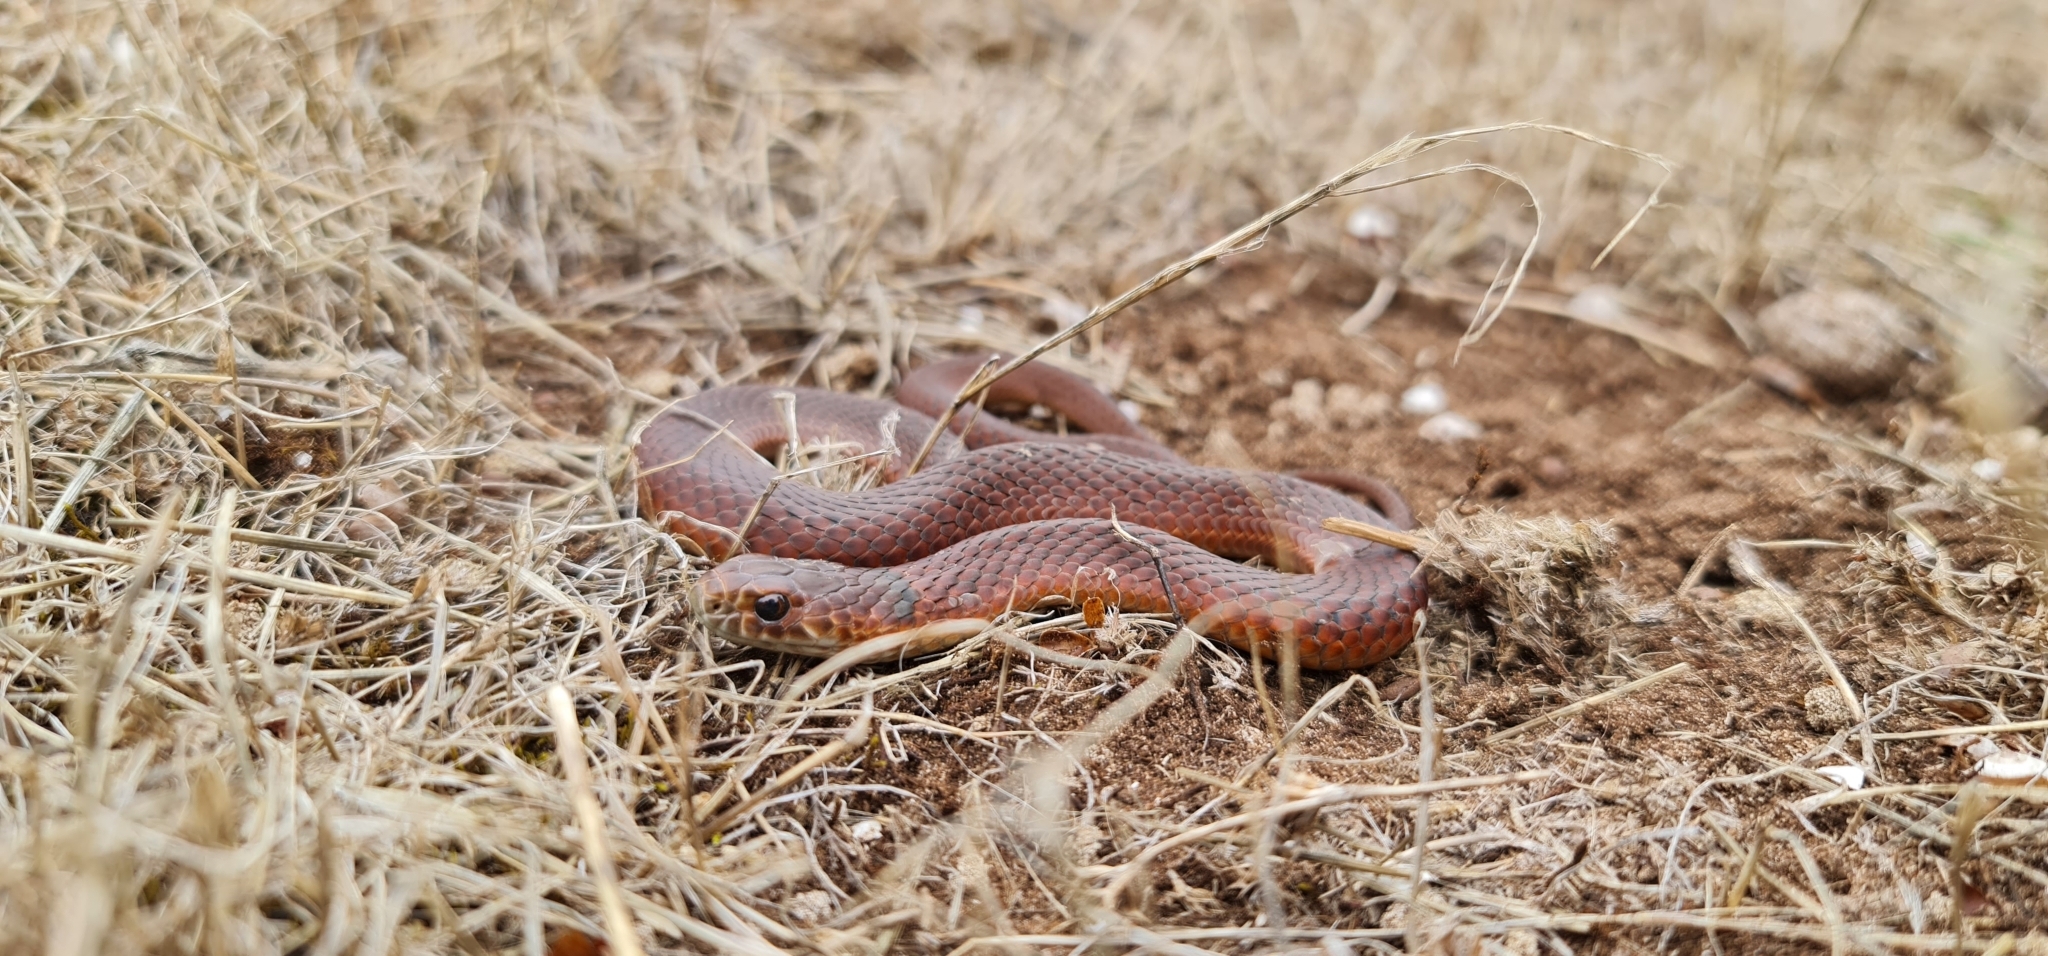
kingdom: Animalia
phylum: Chordata
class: Squamata
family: Elapidae
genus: Austrelaps
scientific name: Austrelaps superbus
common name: Copperhead snake
